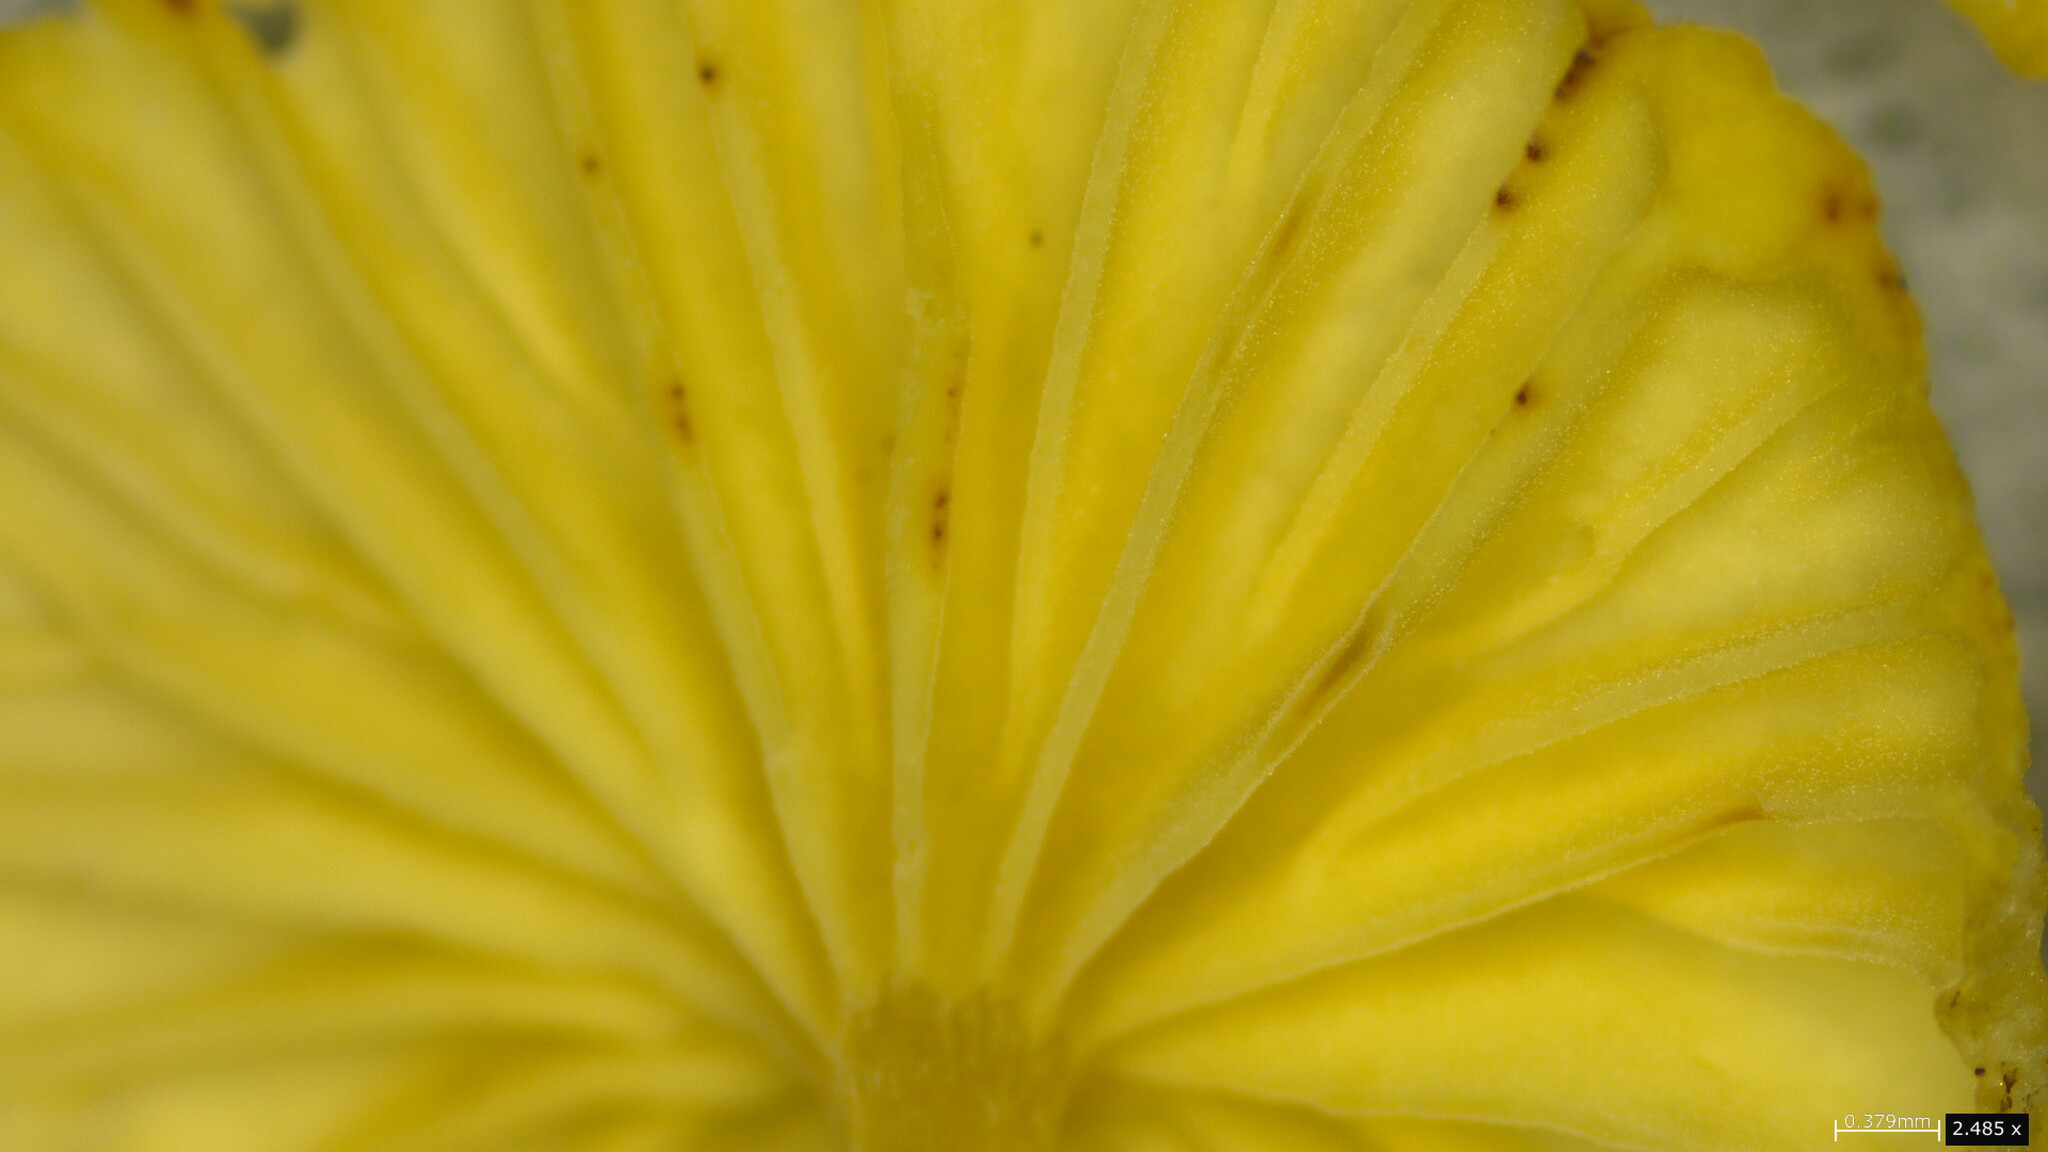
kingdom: Fungi
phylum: Basidiomycota
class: Agaricomycetes
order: Agaricales
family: Marasmiaceae
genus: Gerronema
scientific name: Gerronema nemorale
